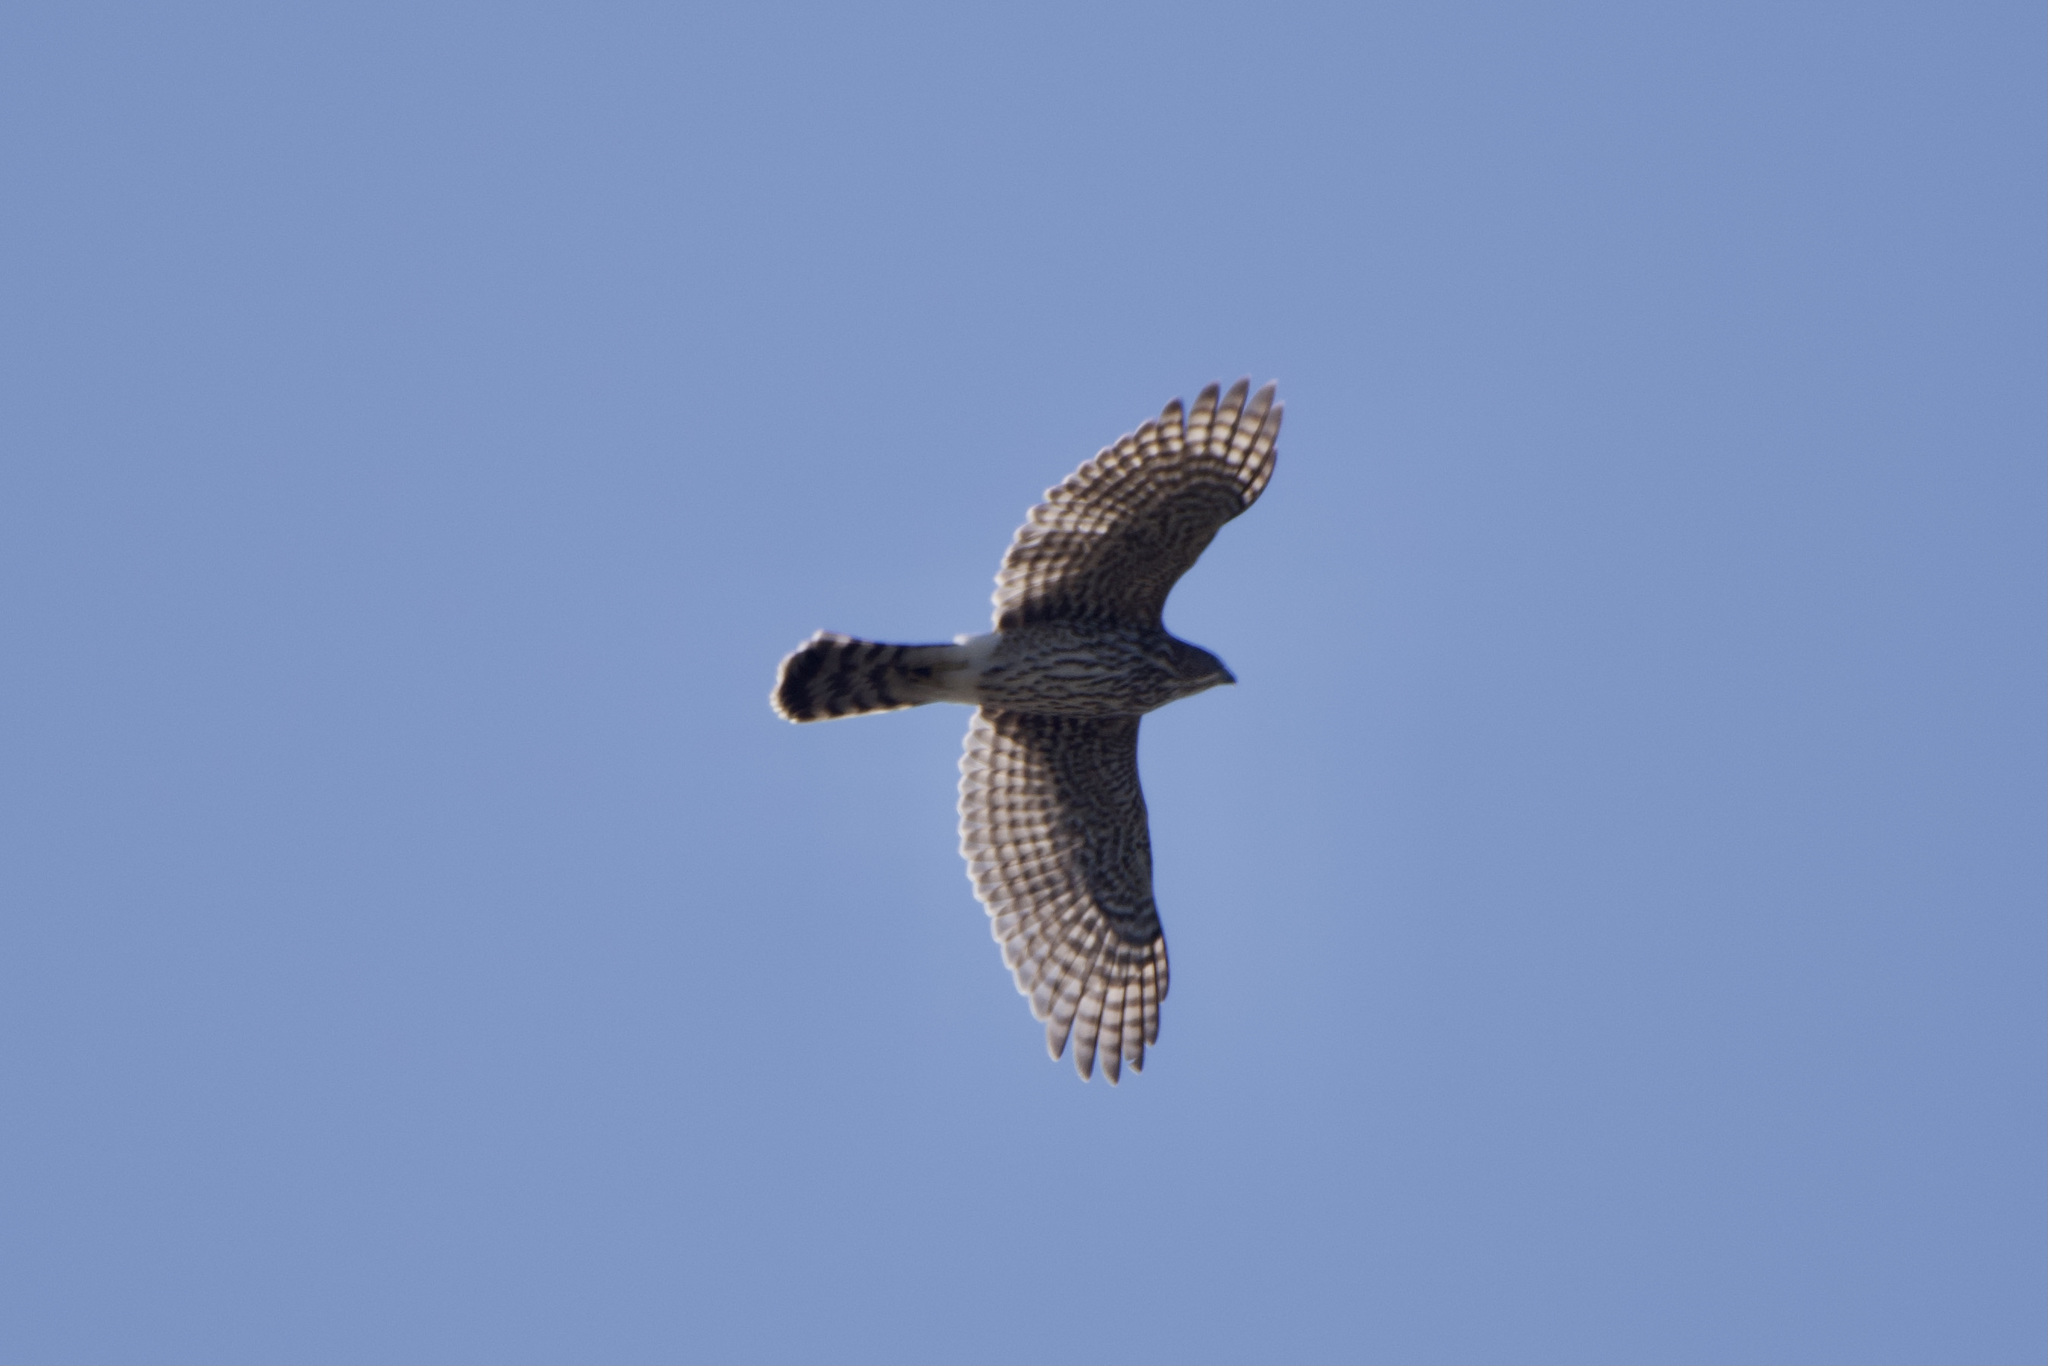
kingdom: Animalia
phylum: Chordata
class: Aves
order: Accipitriformes
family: Accipitridae
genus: Accipiter
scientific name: Accipiter cooperii
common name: Cooper's hawk
